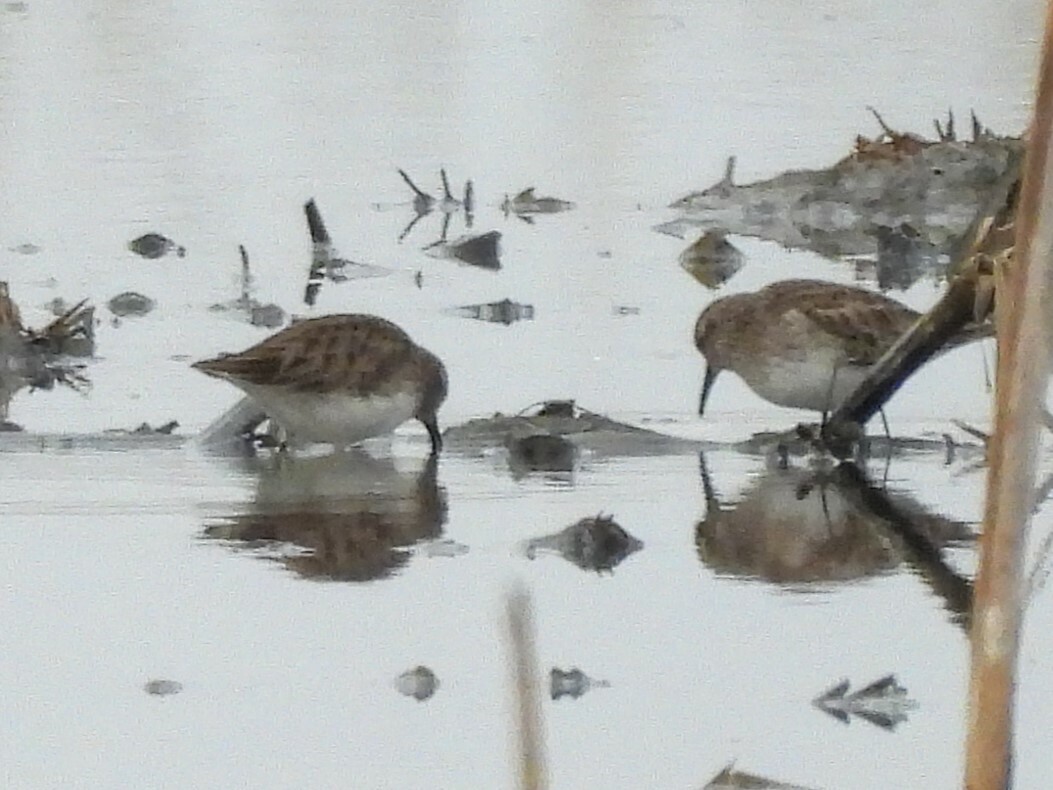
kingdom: Animalia
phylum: Chordata
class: Aves
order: Charadriiformes
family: Scolopacidae
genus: Calidris
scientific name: Calidris minutilla
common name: Least sandpiper
